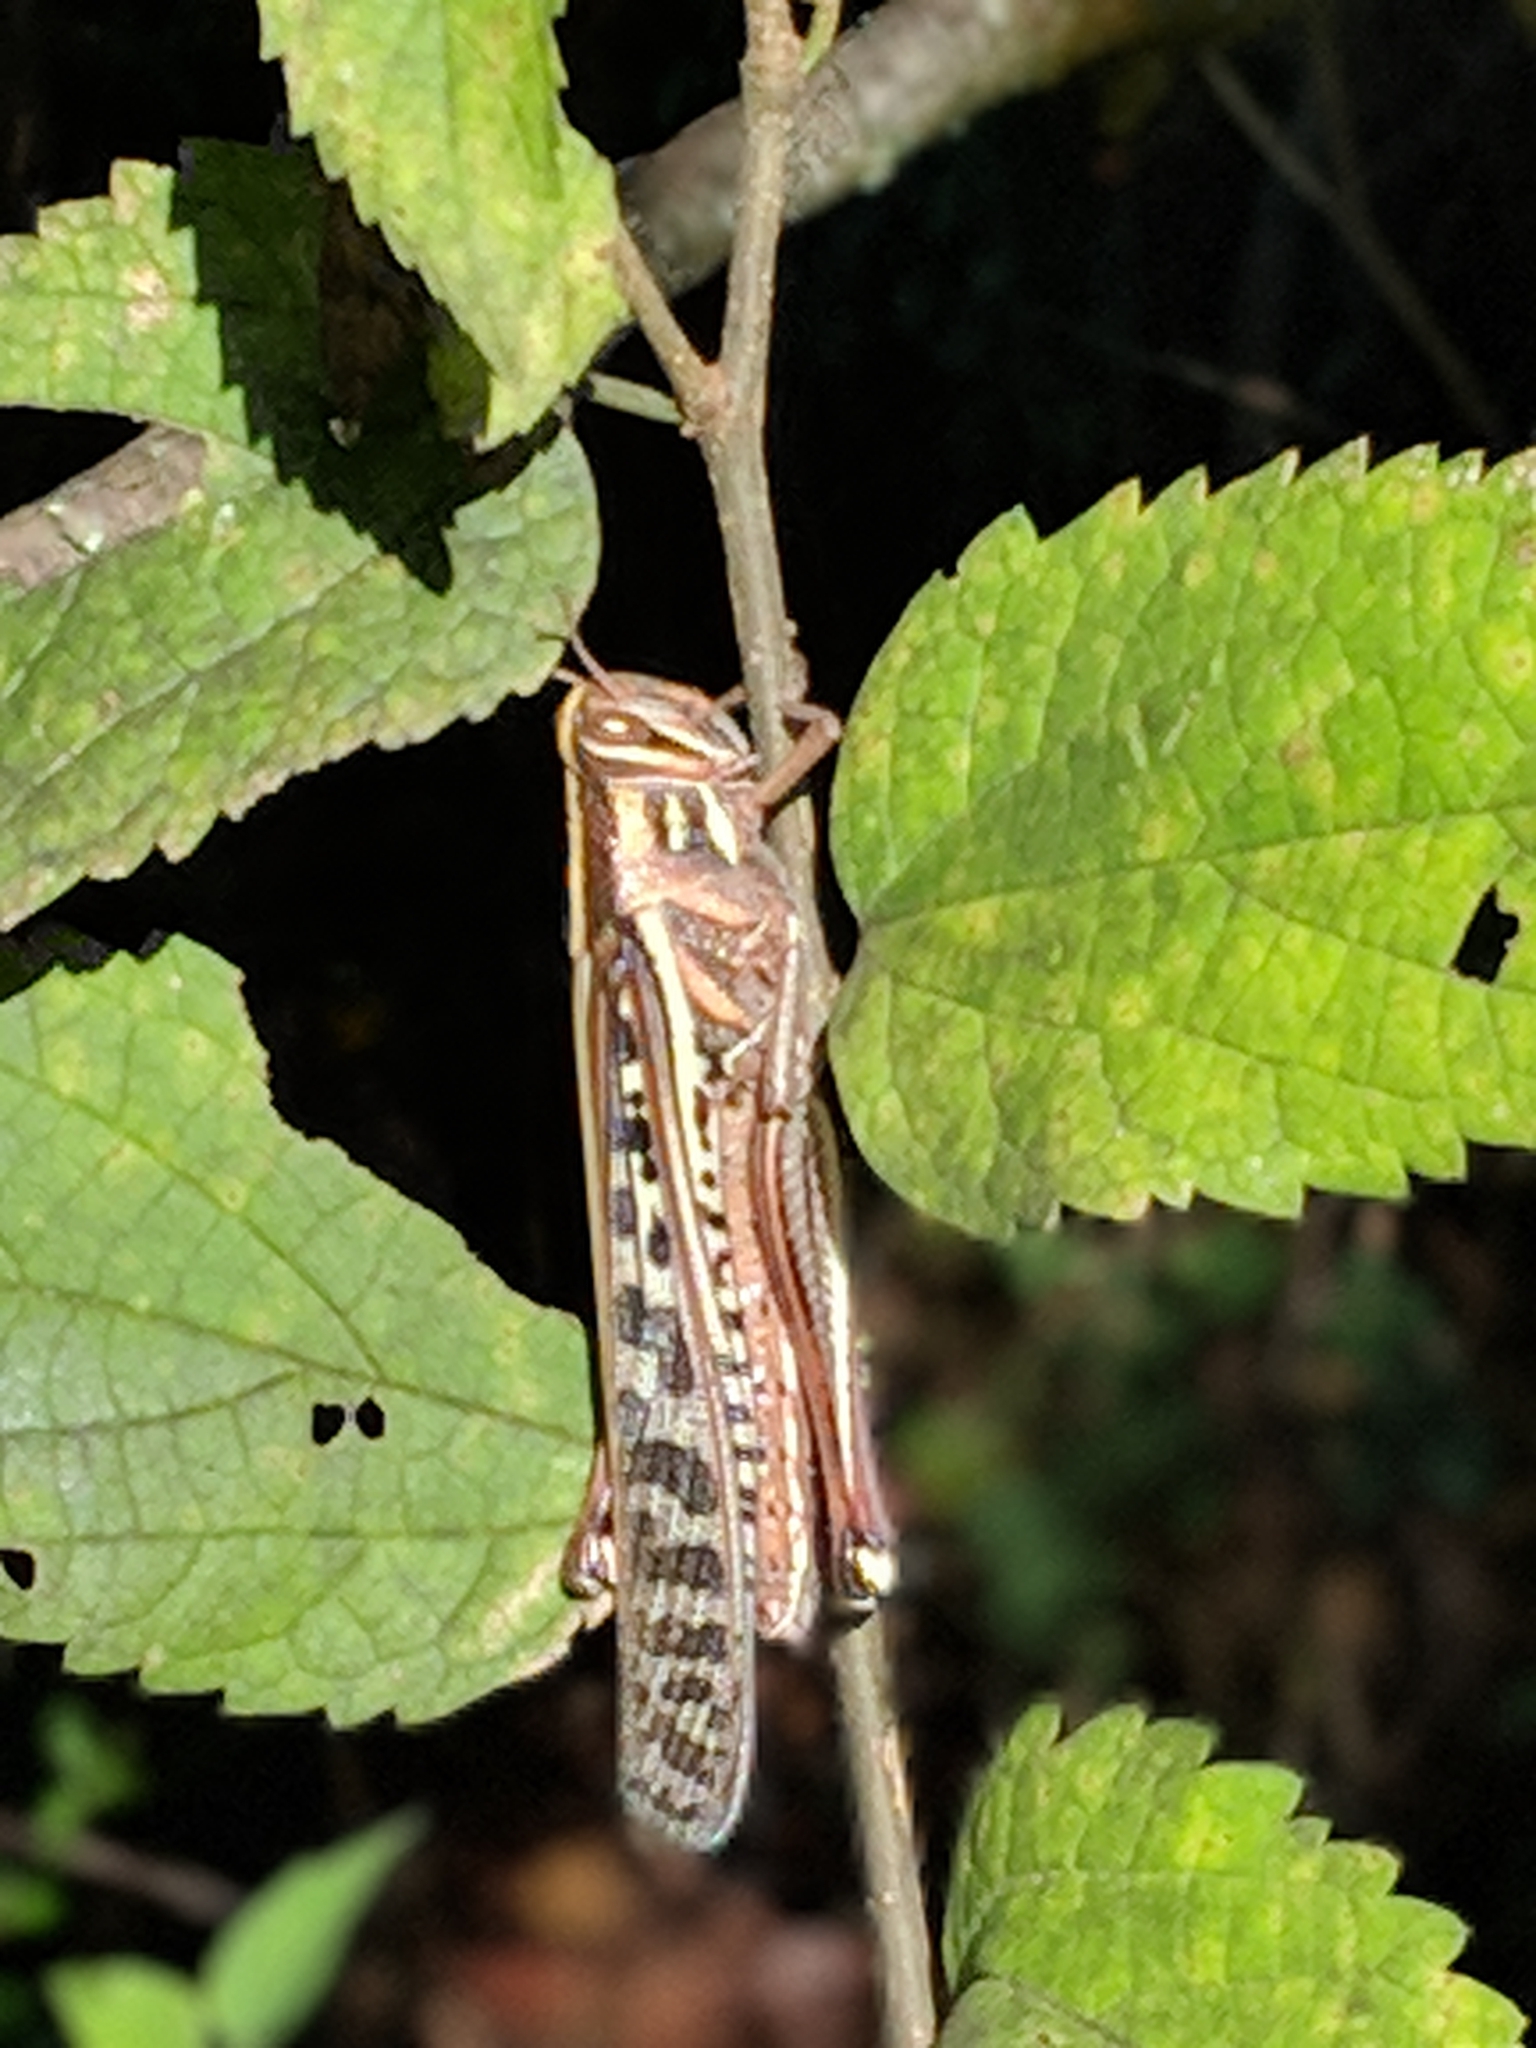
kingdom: Animalia
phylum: Arthropoda
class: Insecta
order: Orthoptera
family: Acrididae
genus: Schistocerca
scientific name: Schistocerca americana
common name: American bird locust
